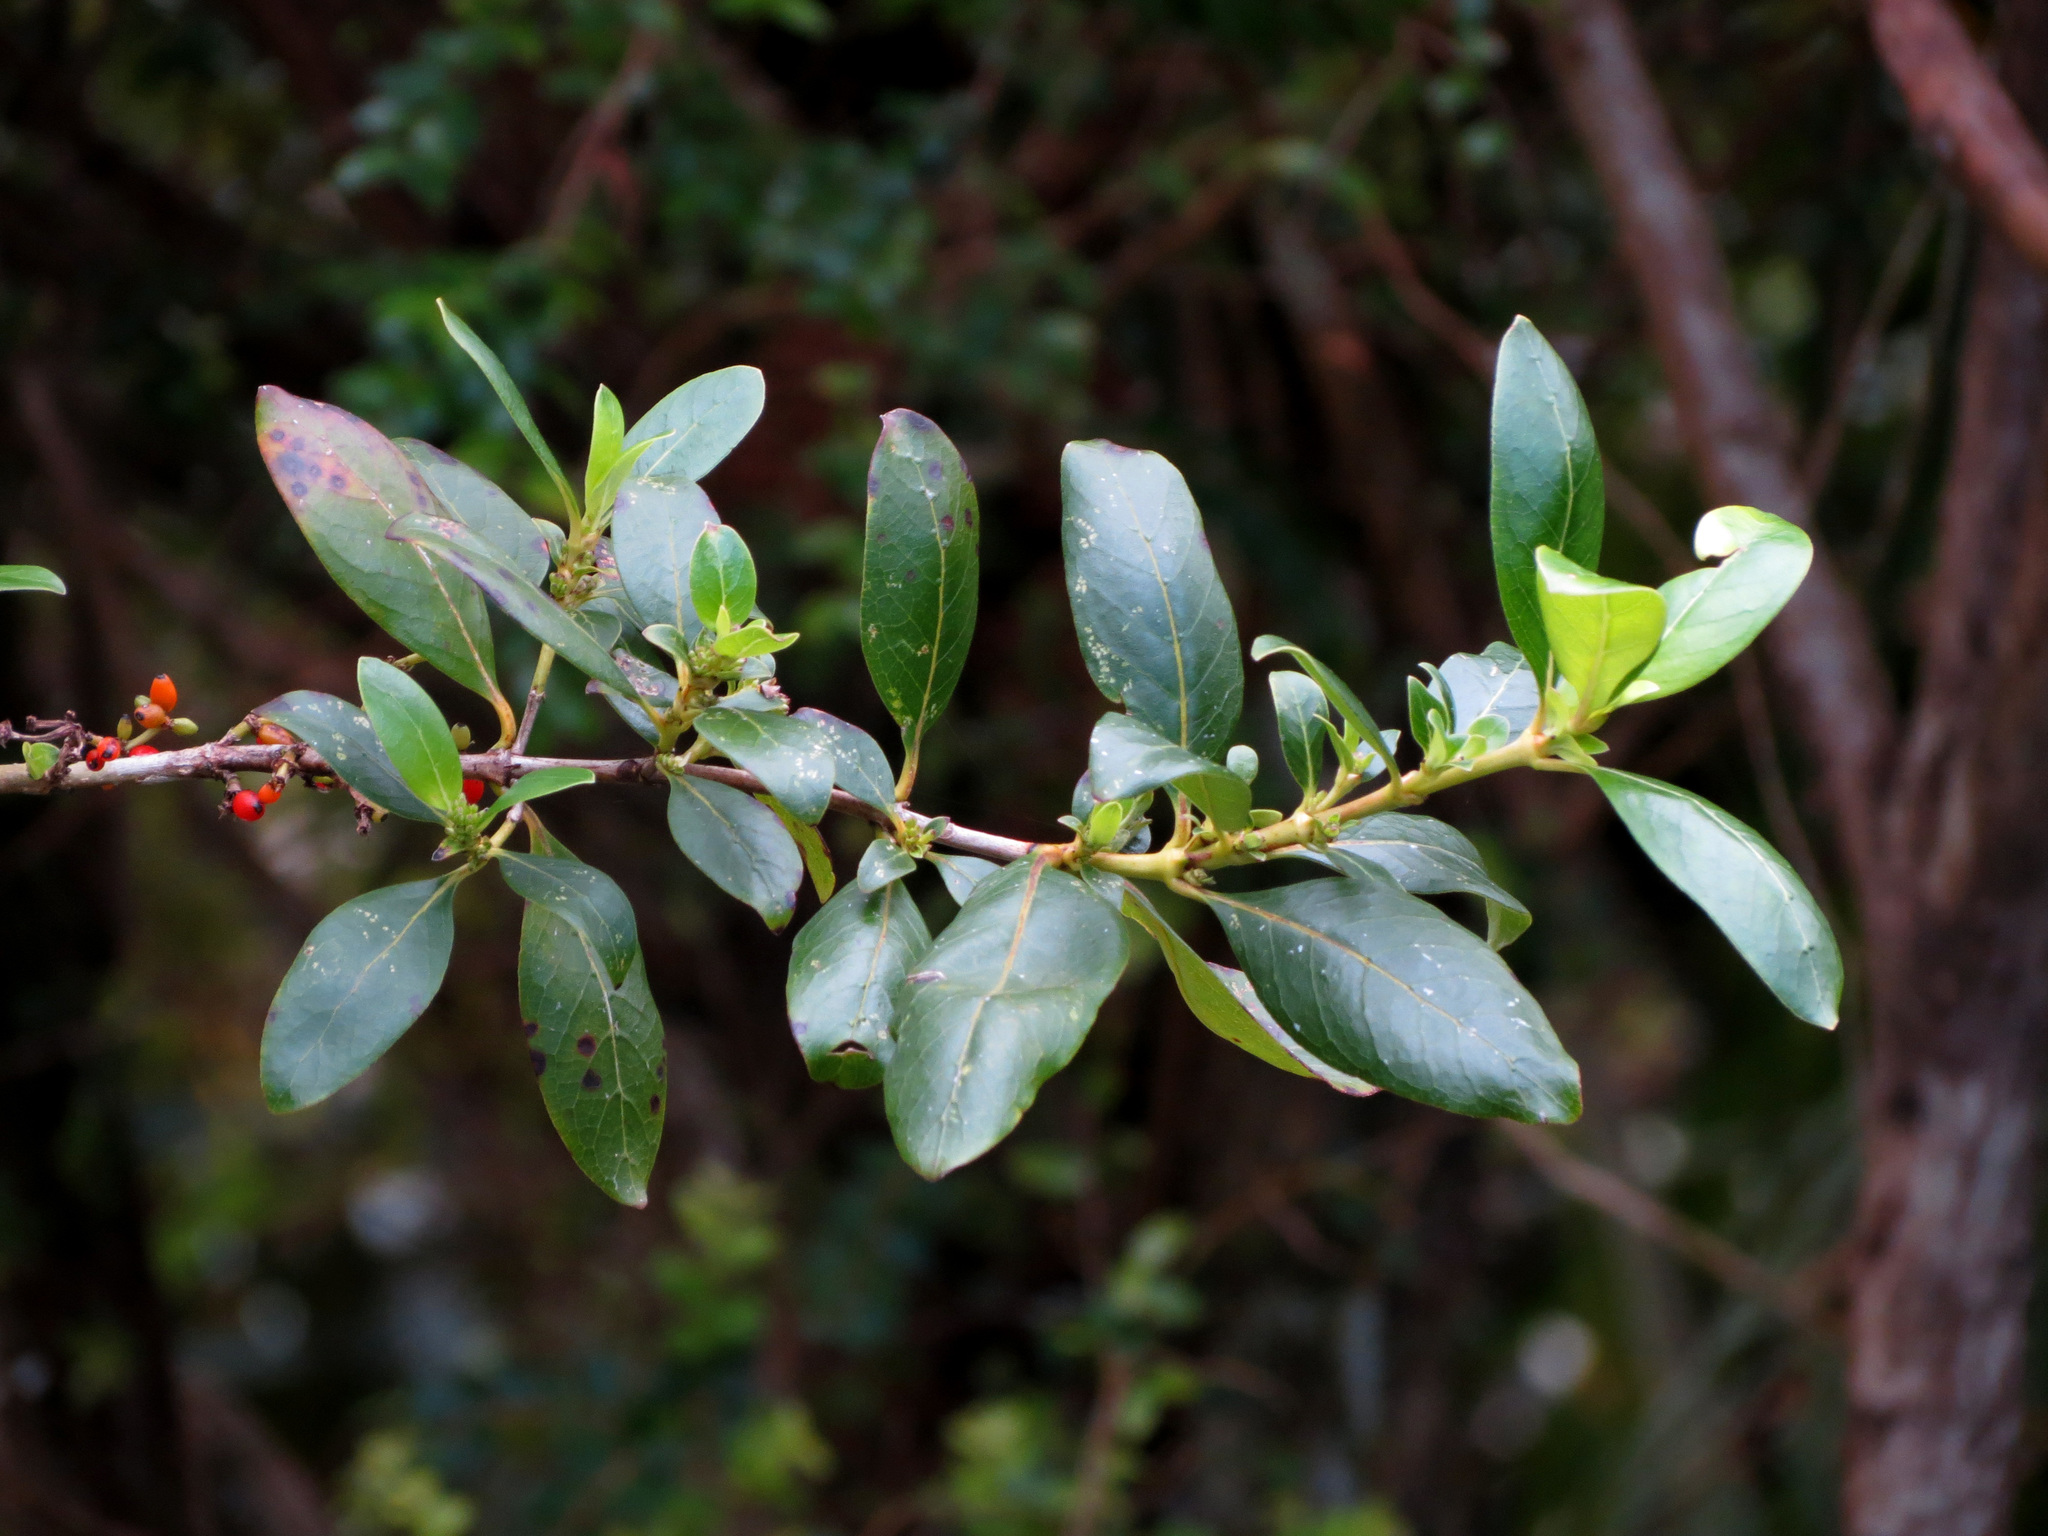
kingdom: Plantae
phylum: Tracheophyta
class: Magnoliopsida
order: Gentianales
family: Rubiaceae
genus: Coprosma
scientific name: Coprosma robusta
